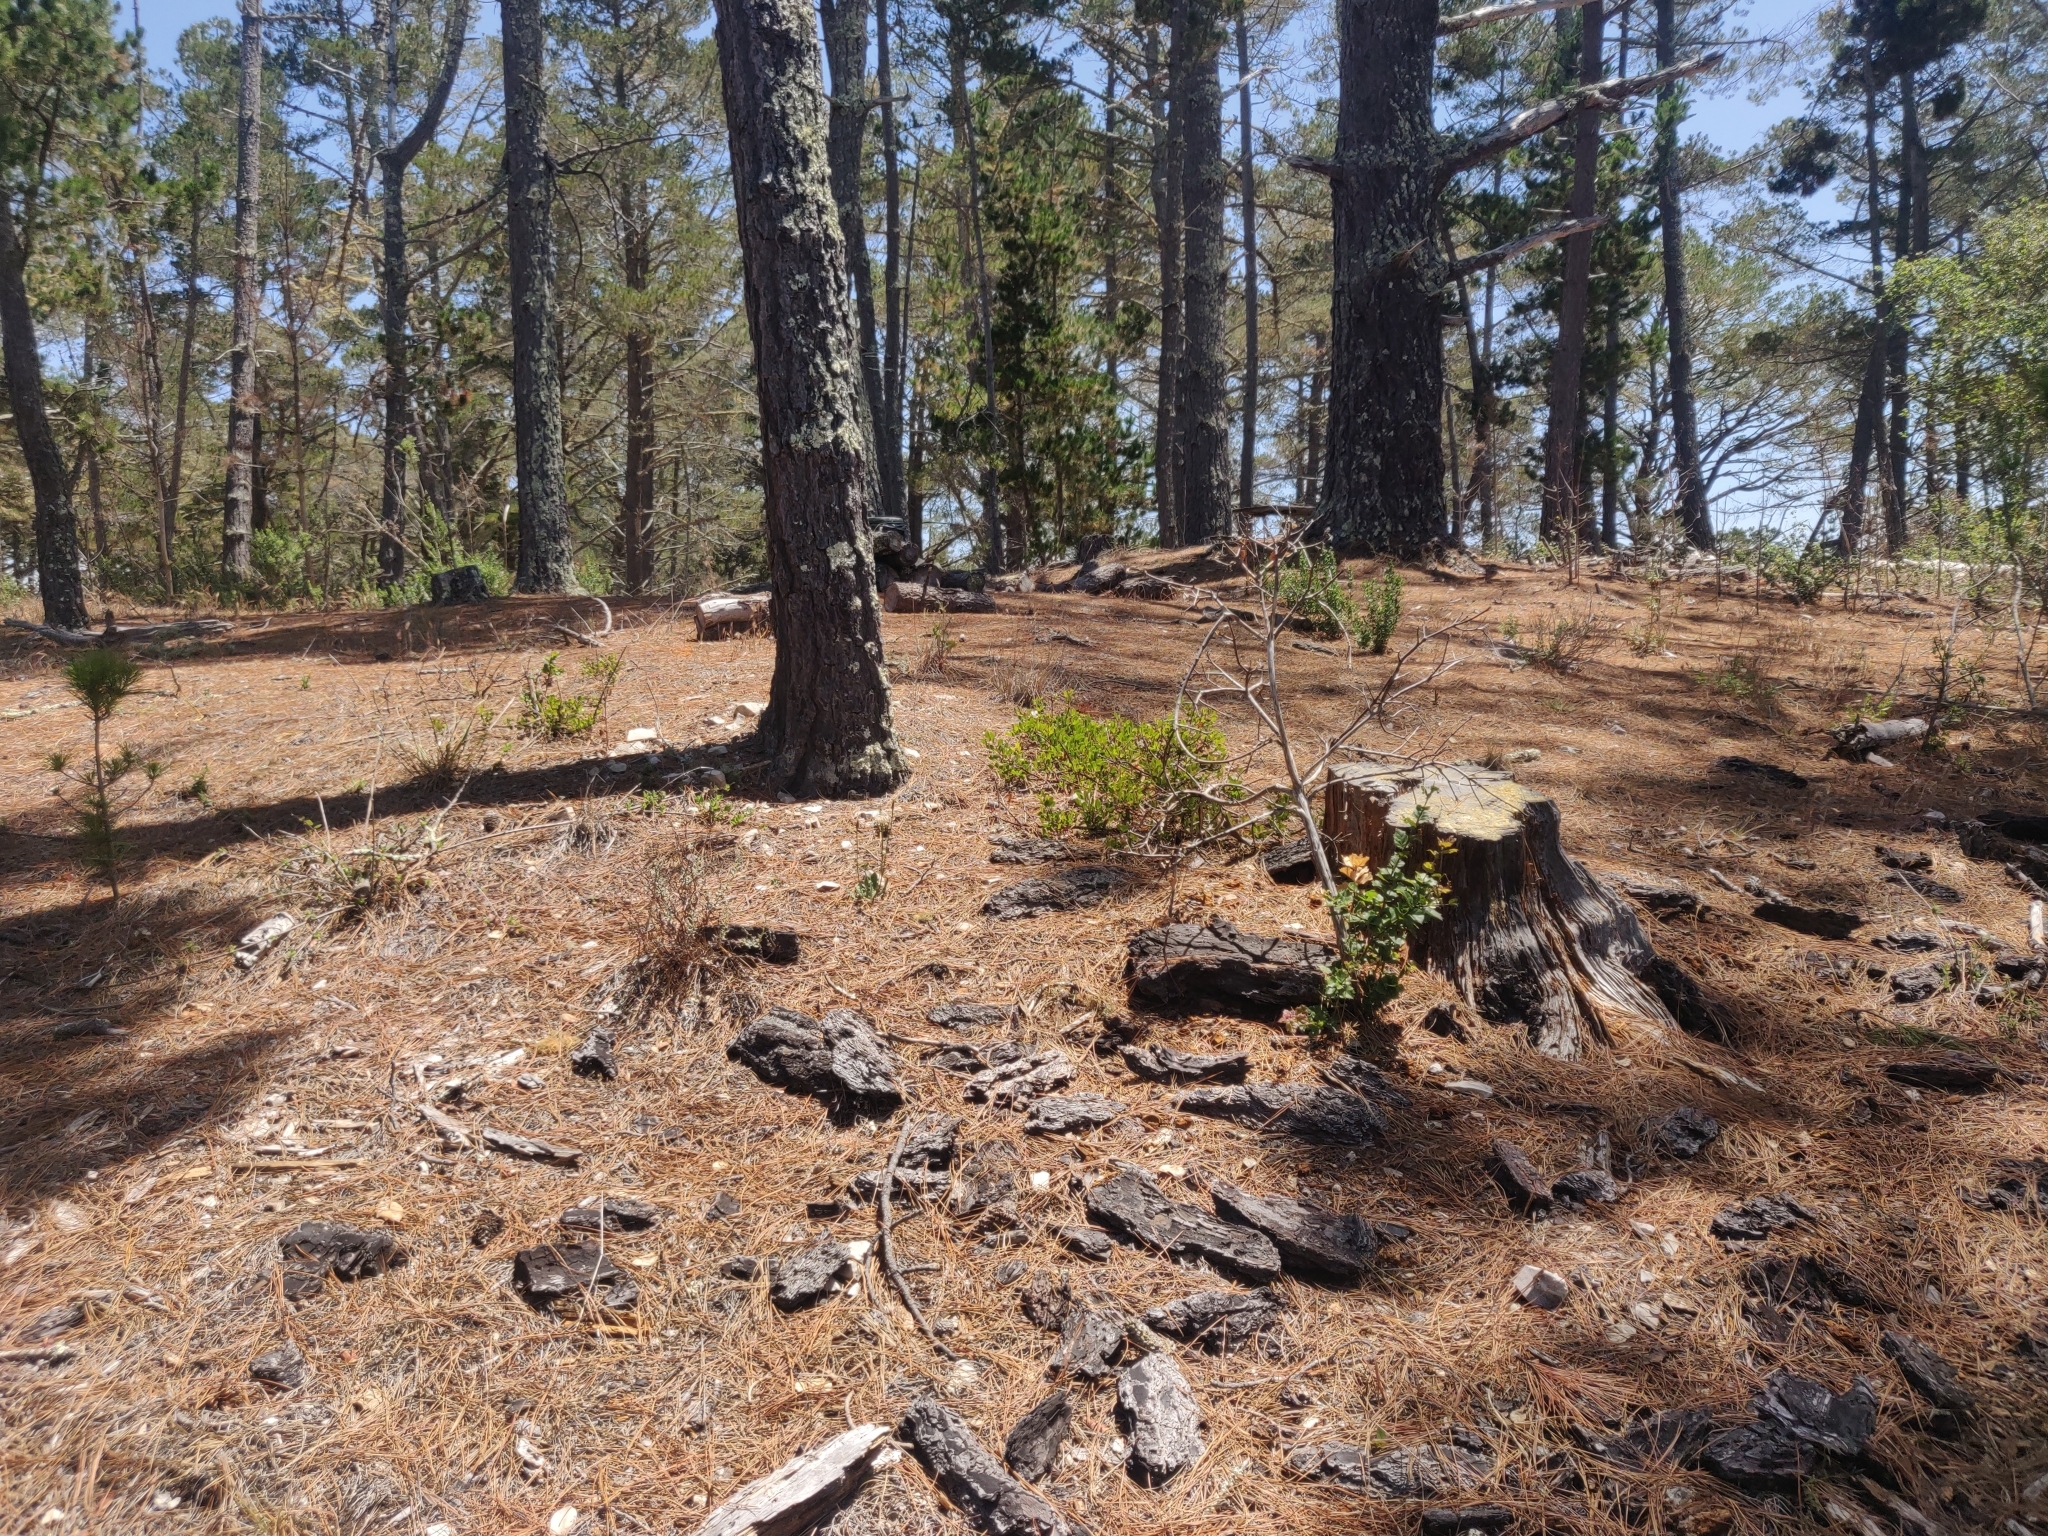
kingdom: Plantae
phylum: Tracheophyta
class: Magnoliopsida
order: Ericales
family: Ericaceae
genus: Arctostaphylos
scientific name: Arctostaphylos hookeri
